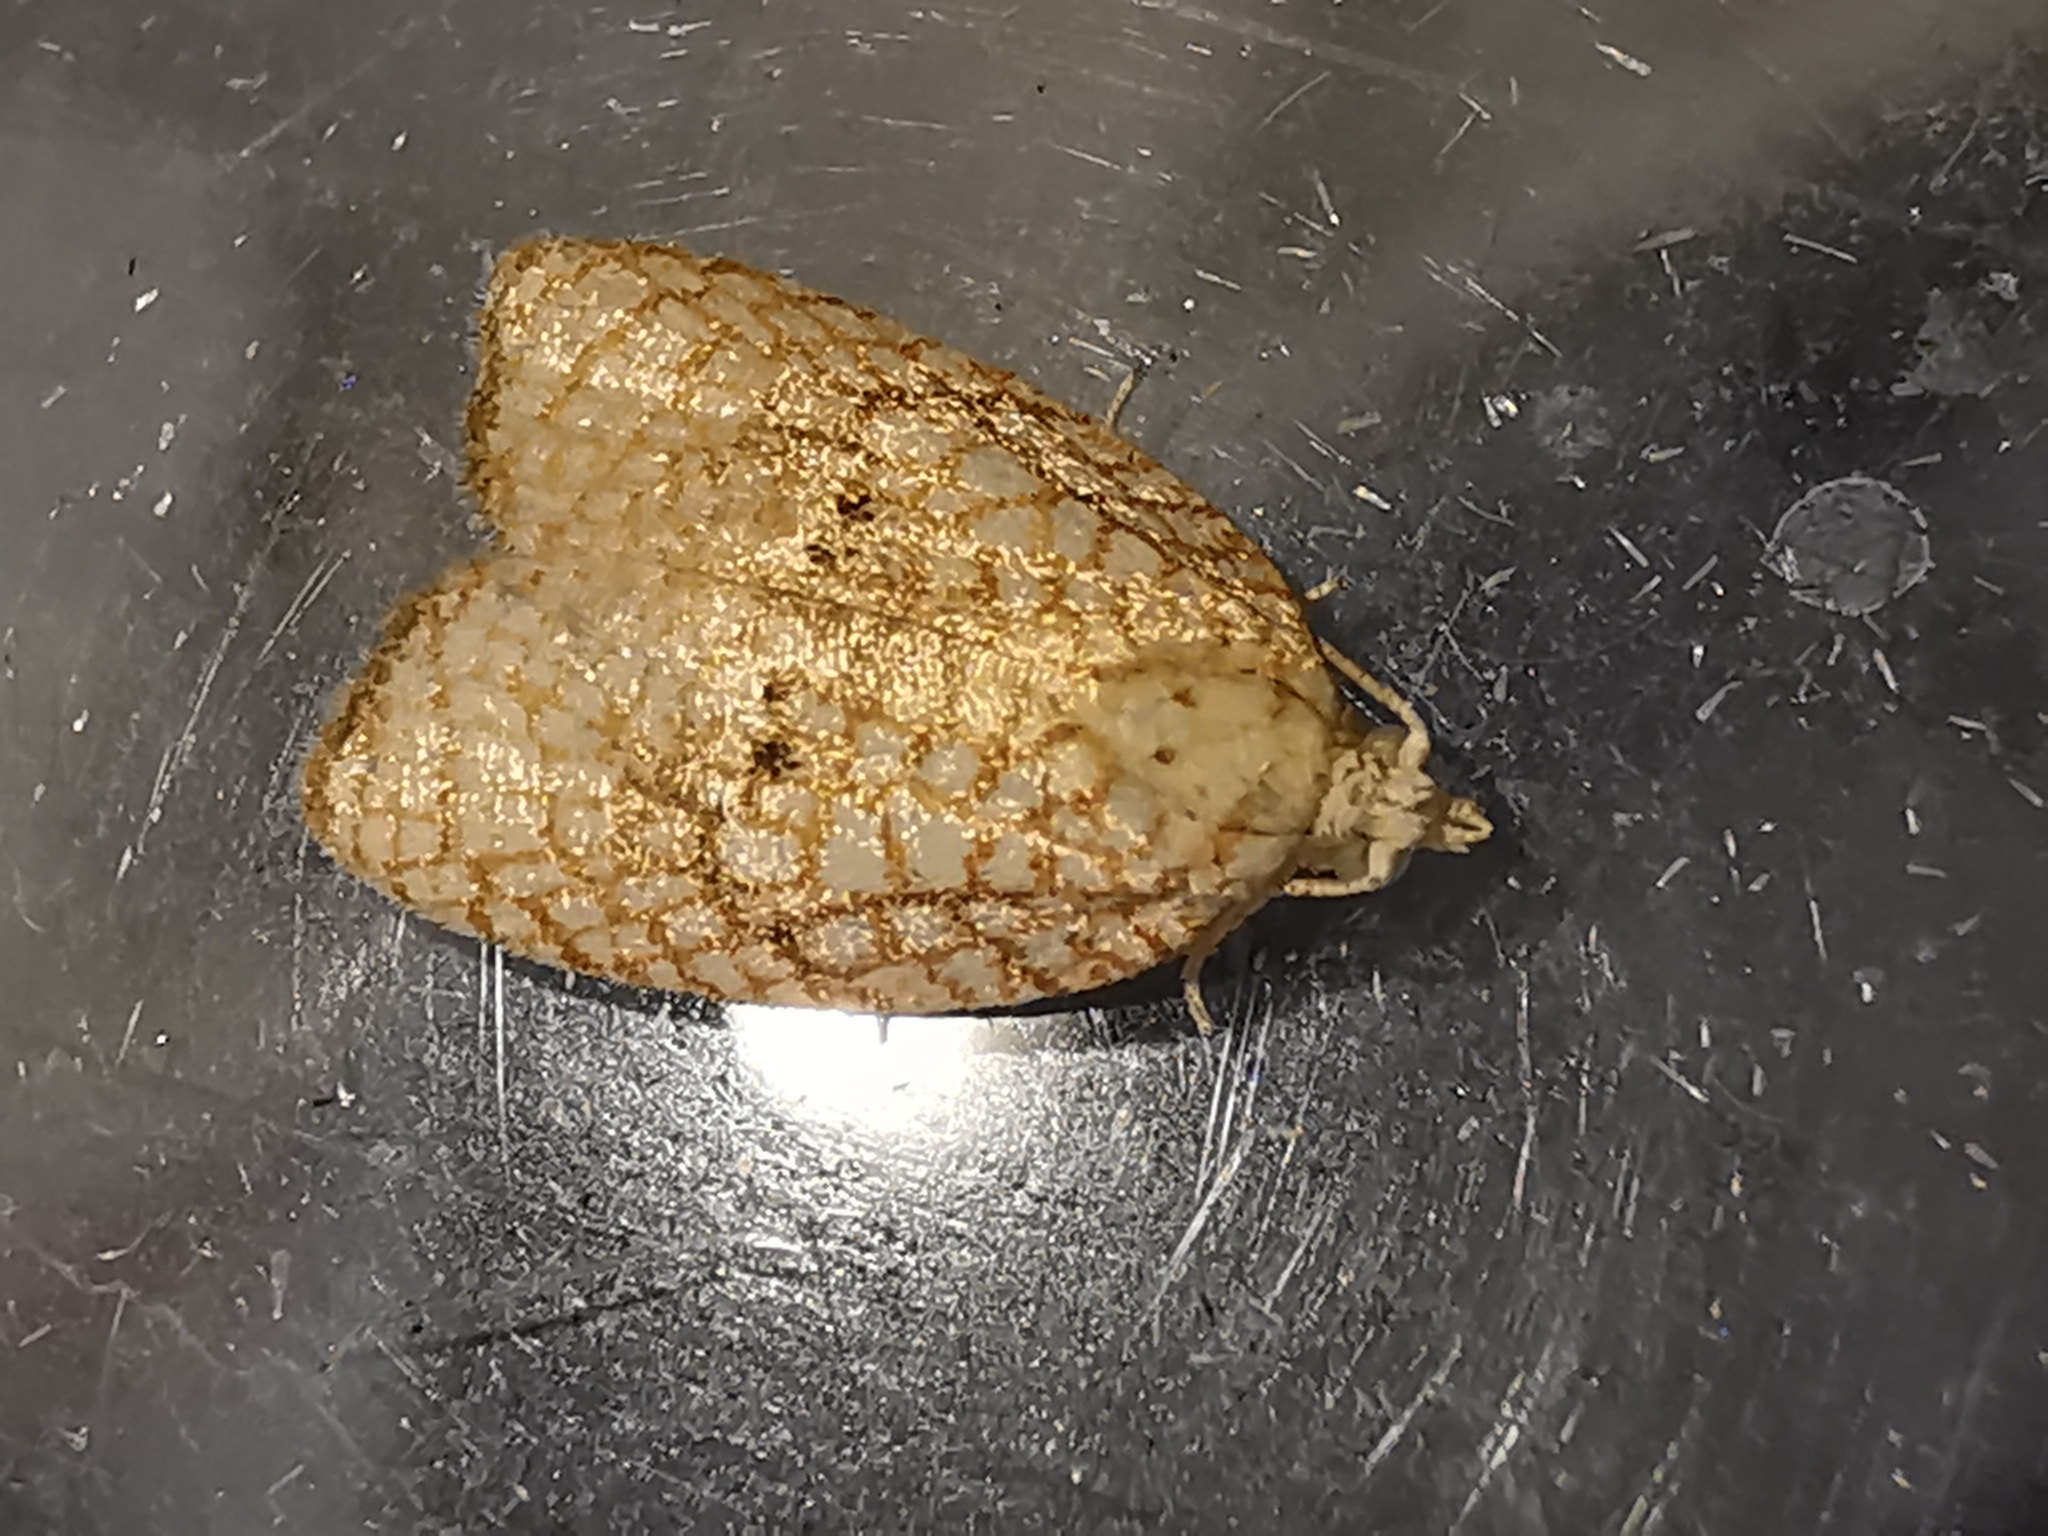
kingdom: Animalia
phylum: Arthropoda
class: Insecta
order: Lepidoptera
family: Tortricidae
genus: Acleris
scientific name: Acleris forsskaleana
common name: Maple button
